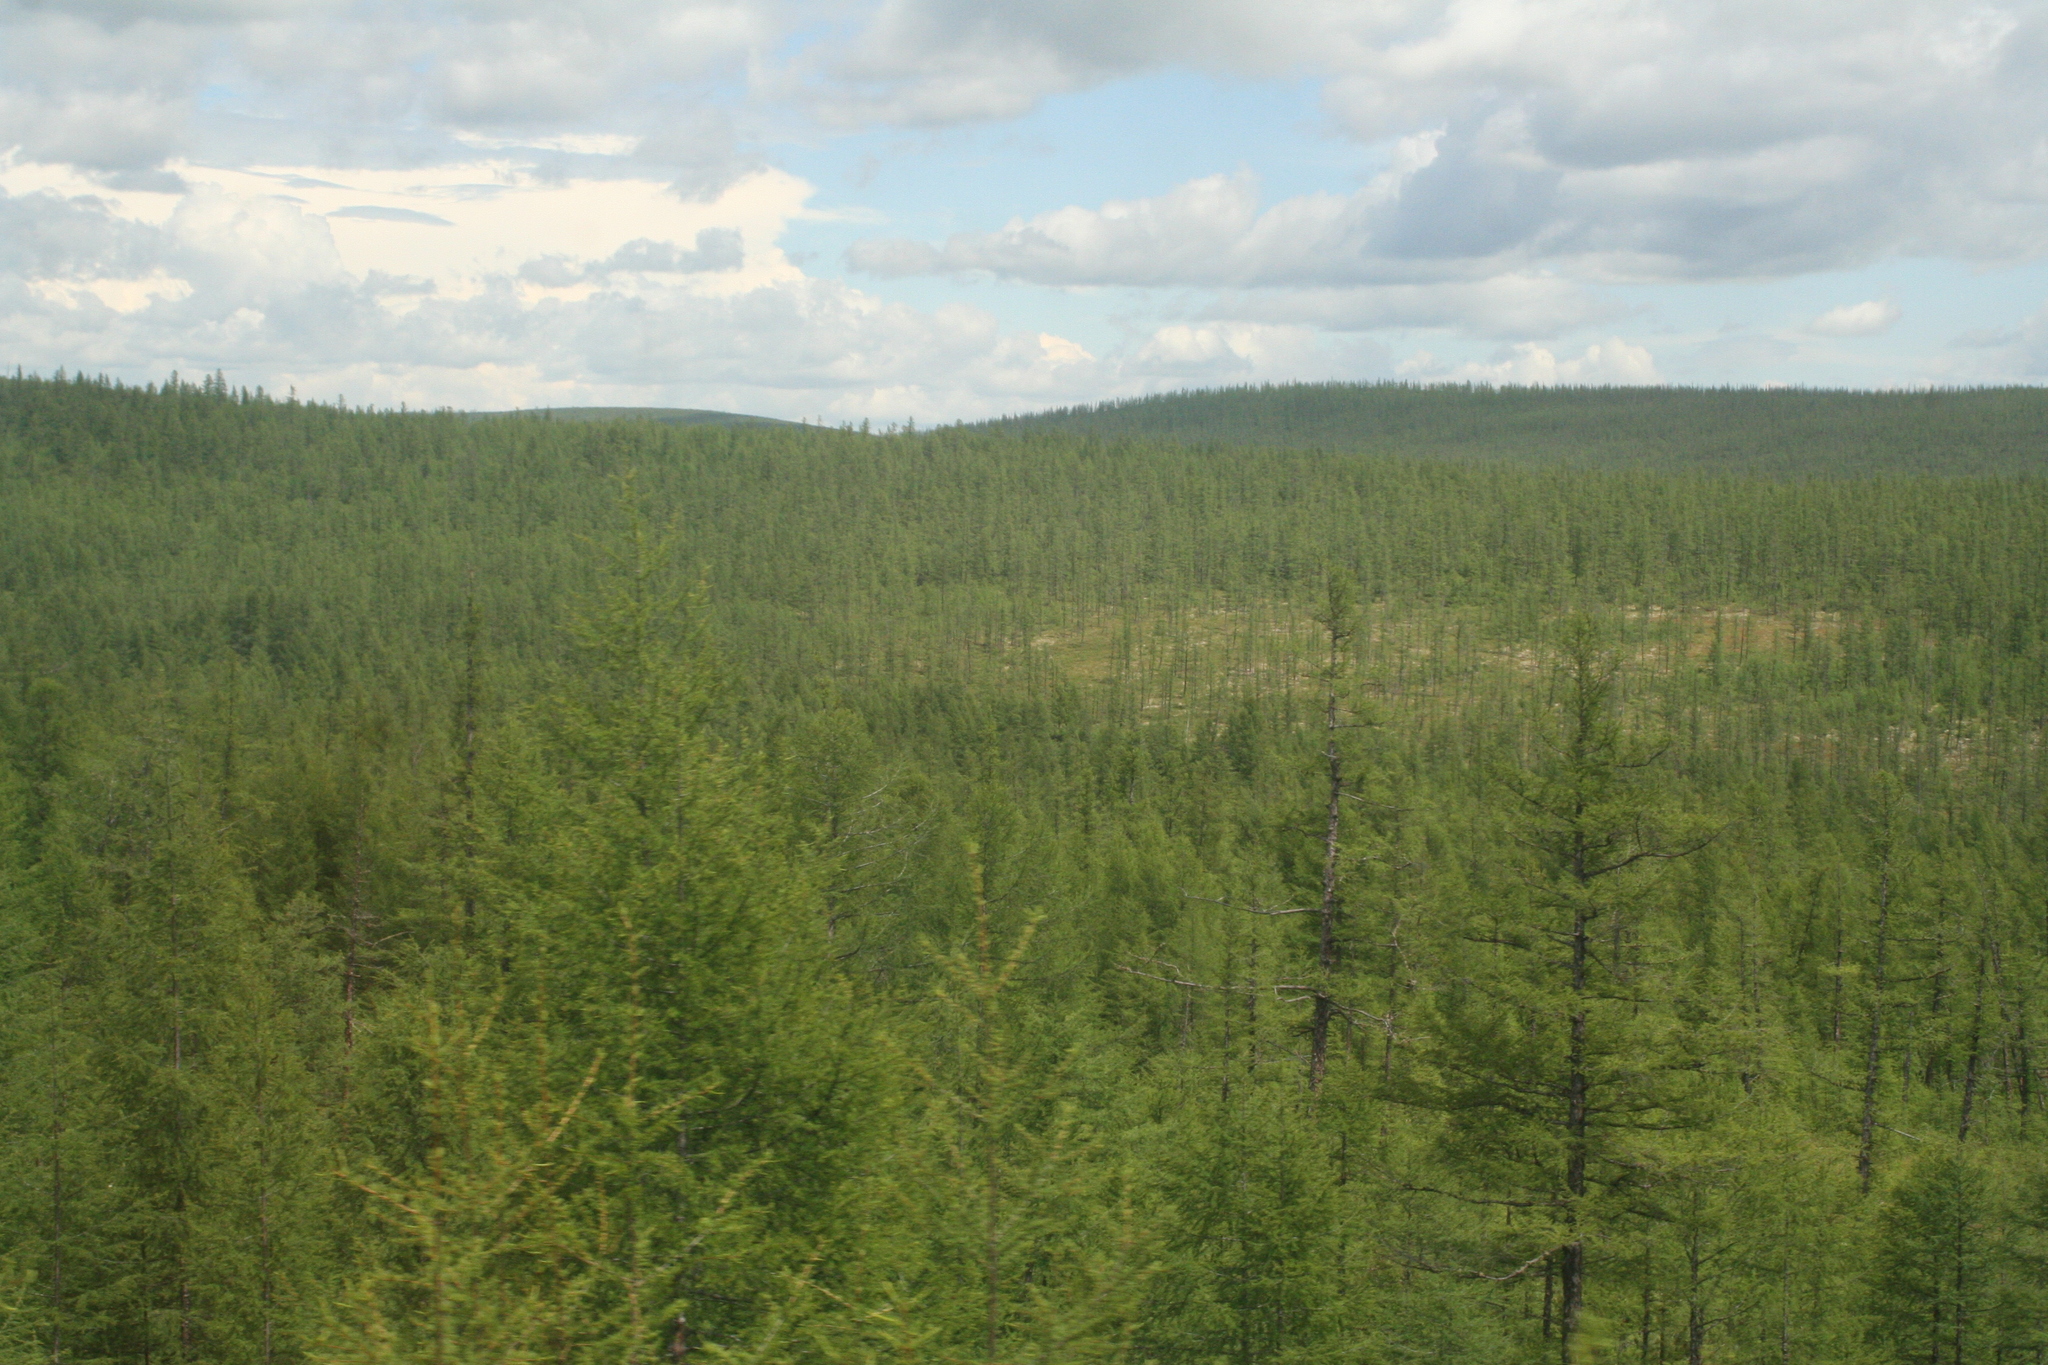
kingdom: Plantae
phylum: Tracheophyta
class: Pinopsida
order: Pinales
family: Pinaceae
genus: Larix
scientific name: Larix gmelinii
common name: Dahurian larch
